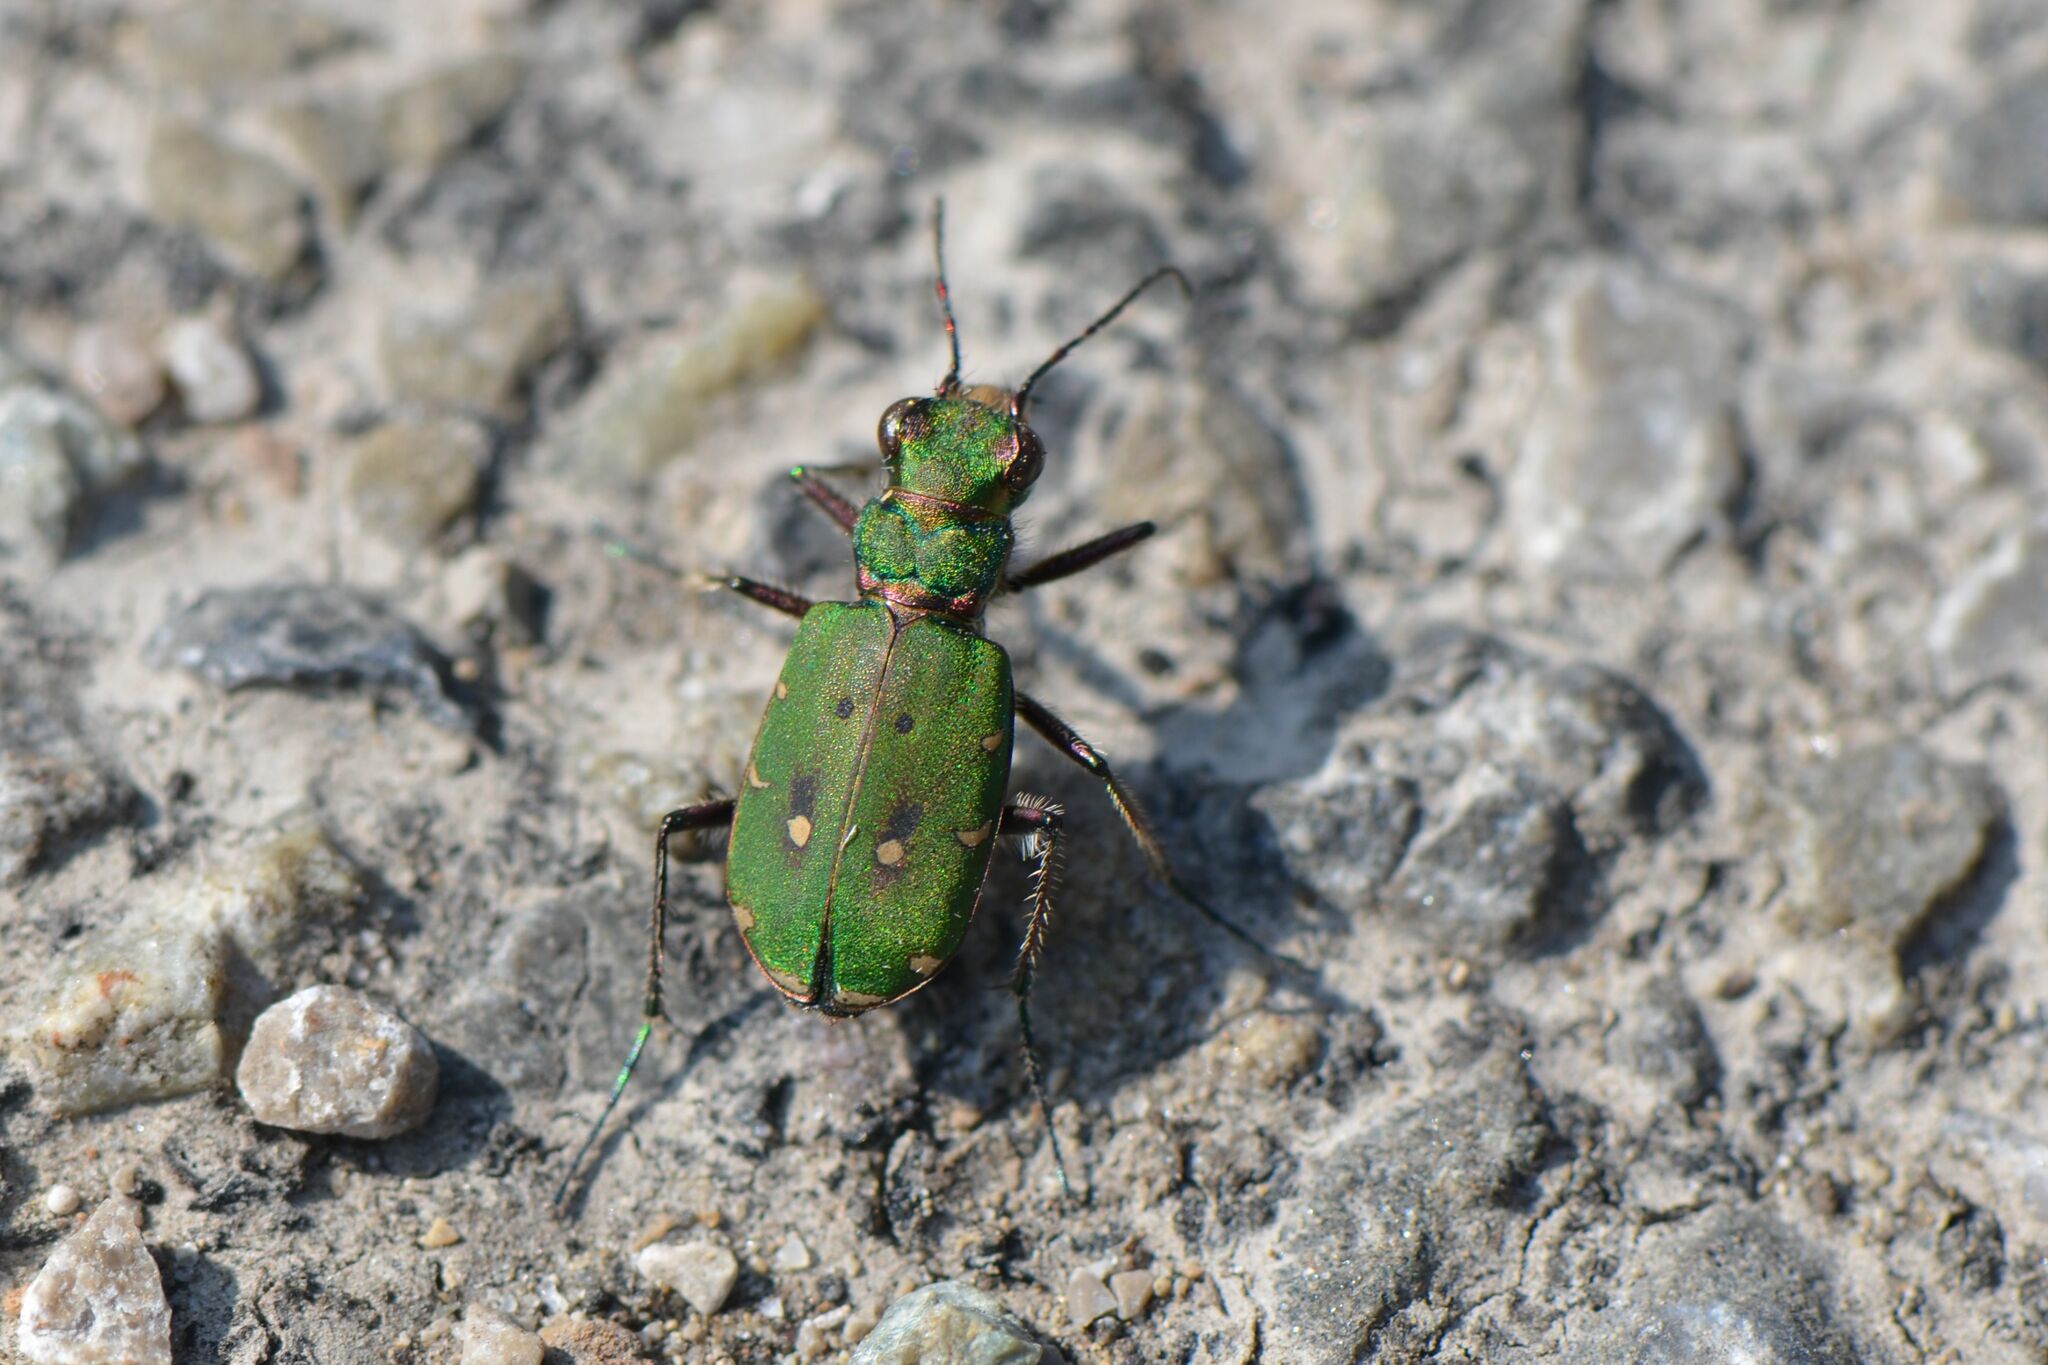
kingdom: Animalia
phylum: Arthropoda
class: Insecta
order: Coleoptera
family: Carabidae
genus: Cicindela
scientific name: Cicindela campestris
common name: Common tiger beetle
